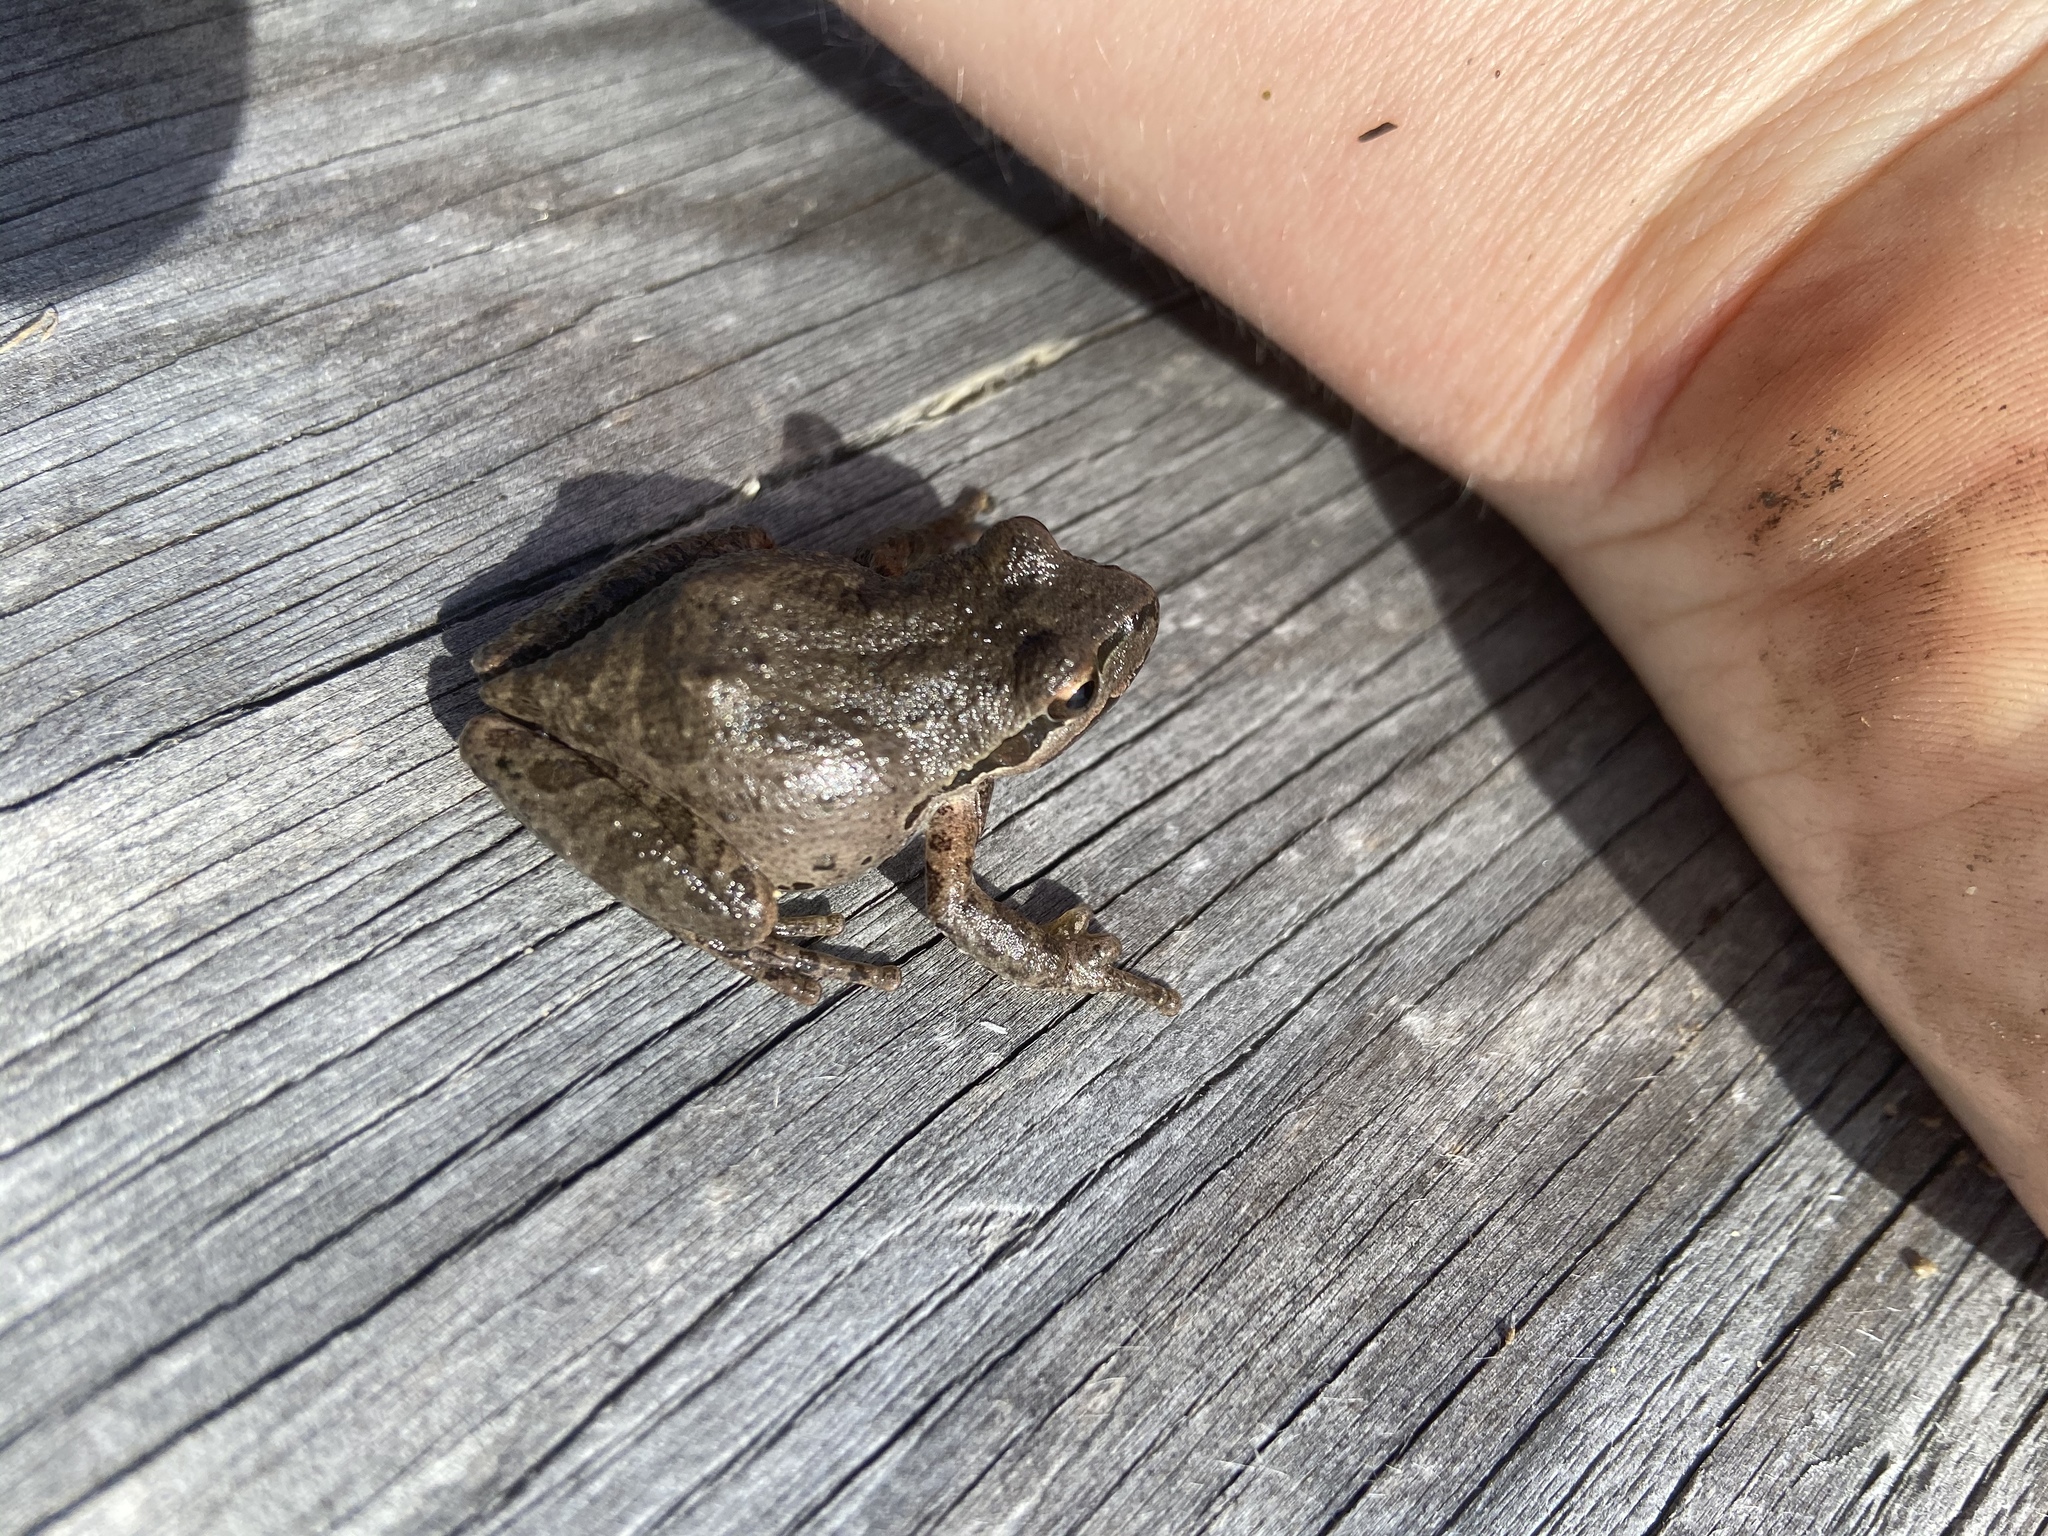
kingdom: Animalia
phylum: Chordata
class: Amphibia
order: Anura
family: Hylidae
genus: Pseudacris
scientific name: Pseudacris regilla
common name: Pacific chorus frog
